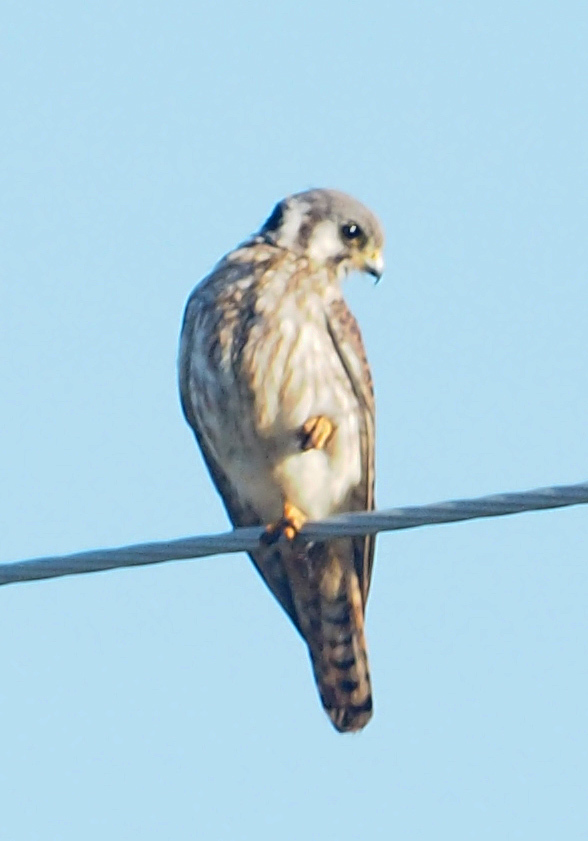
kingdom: Animalia
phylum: Chordata
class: Aves
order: Falconiformes
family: Falconidae
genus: Falco
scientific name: Falco sparverius
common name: American kestrel
